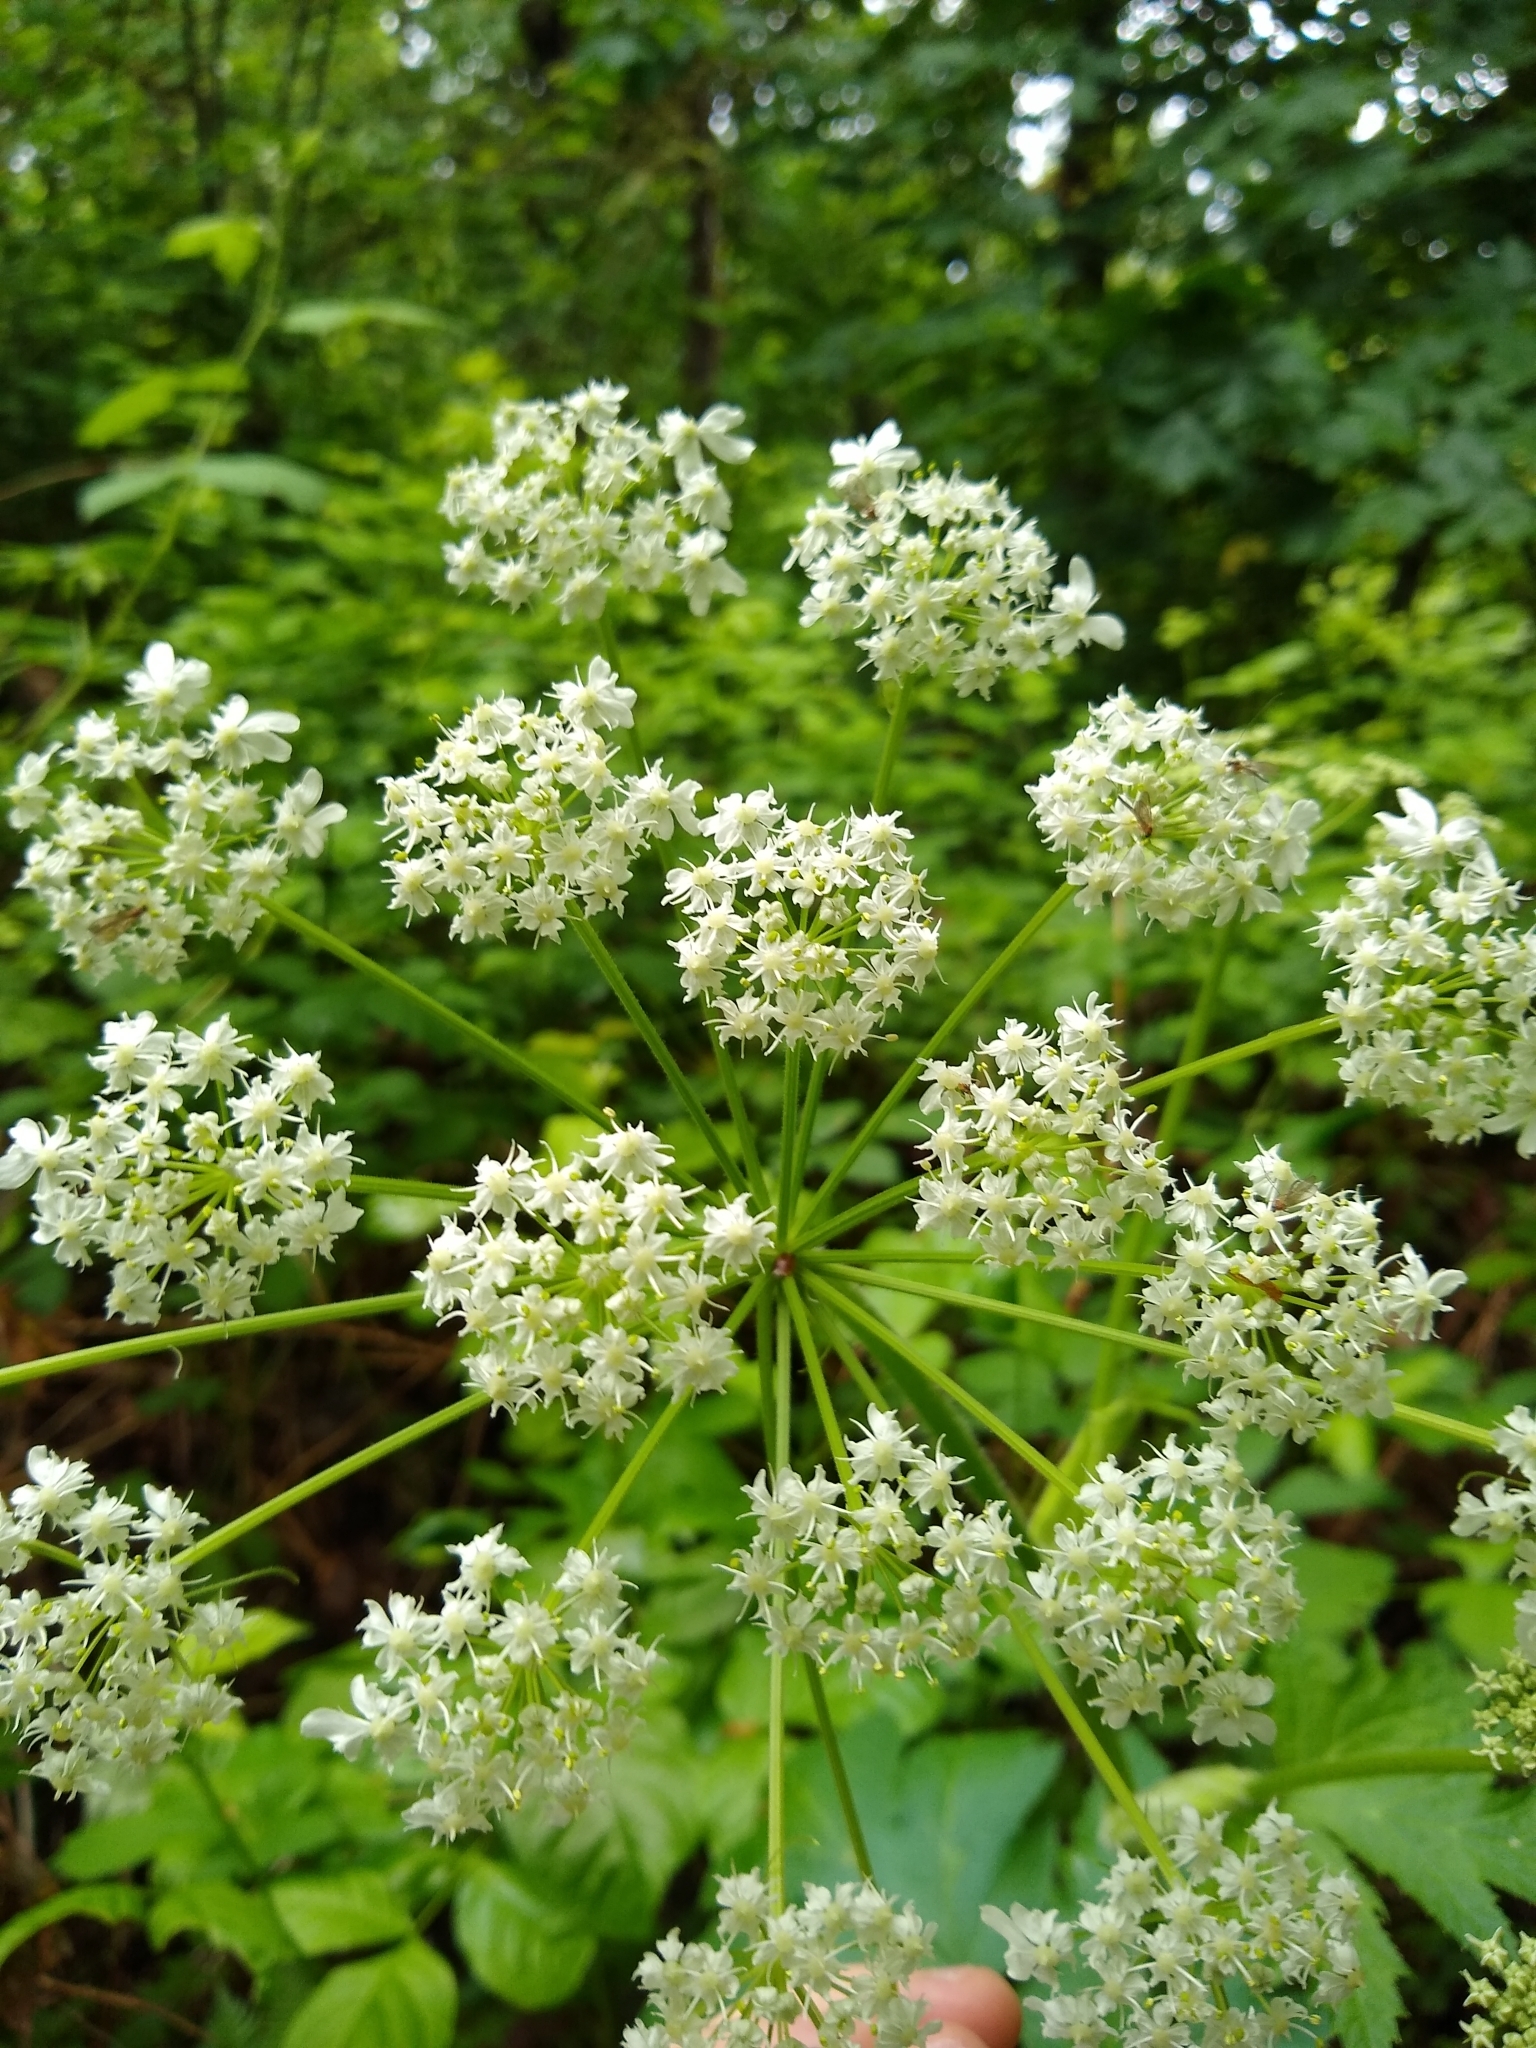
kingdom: Plantae
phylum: Tracheophyta
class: Magnoliopsida
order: Apiales
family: Apiaceae
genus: Heracleum
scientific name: Heracleum maximum
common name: American cow parsnip
